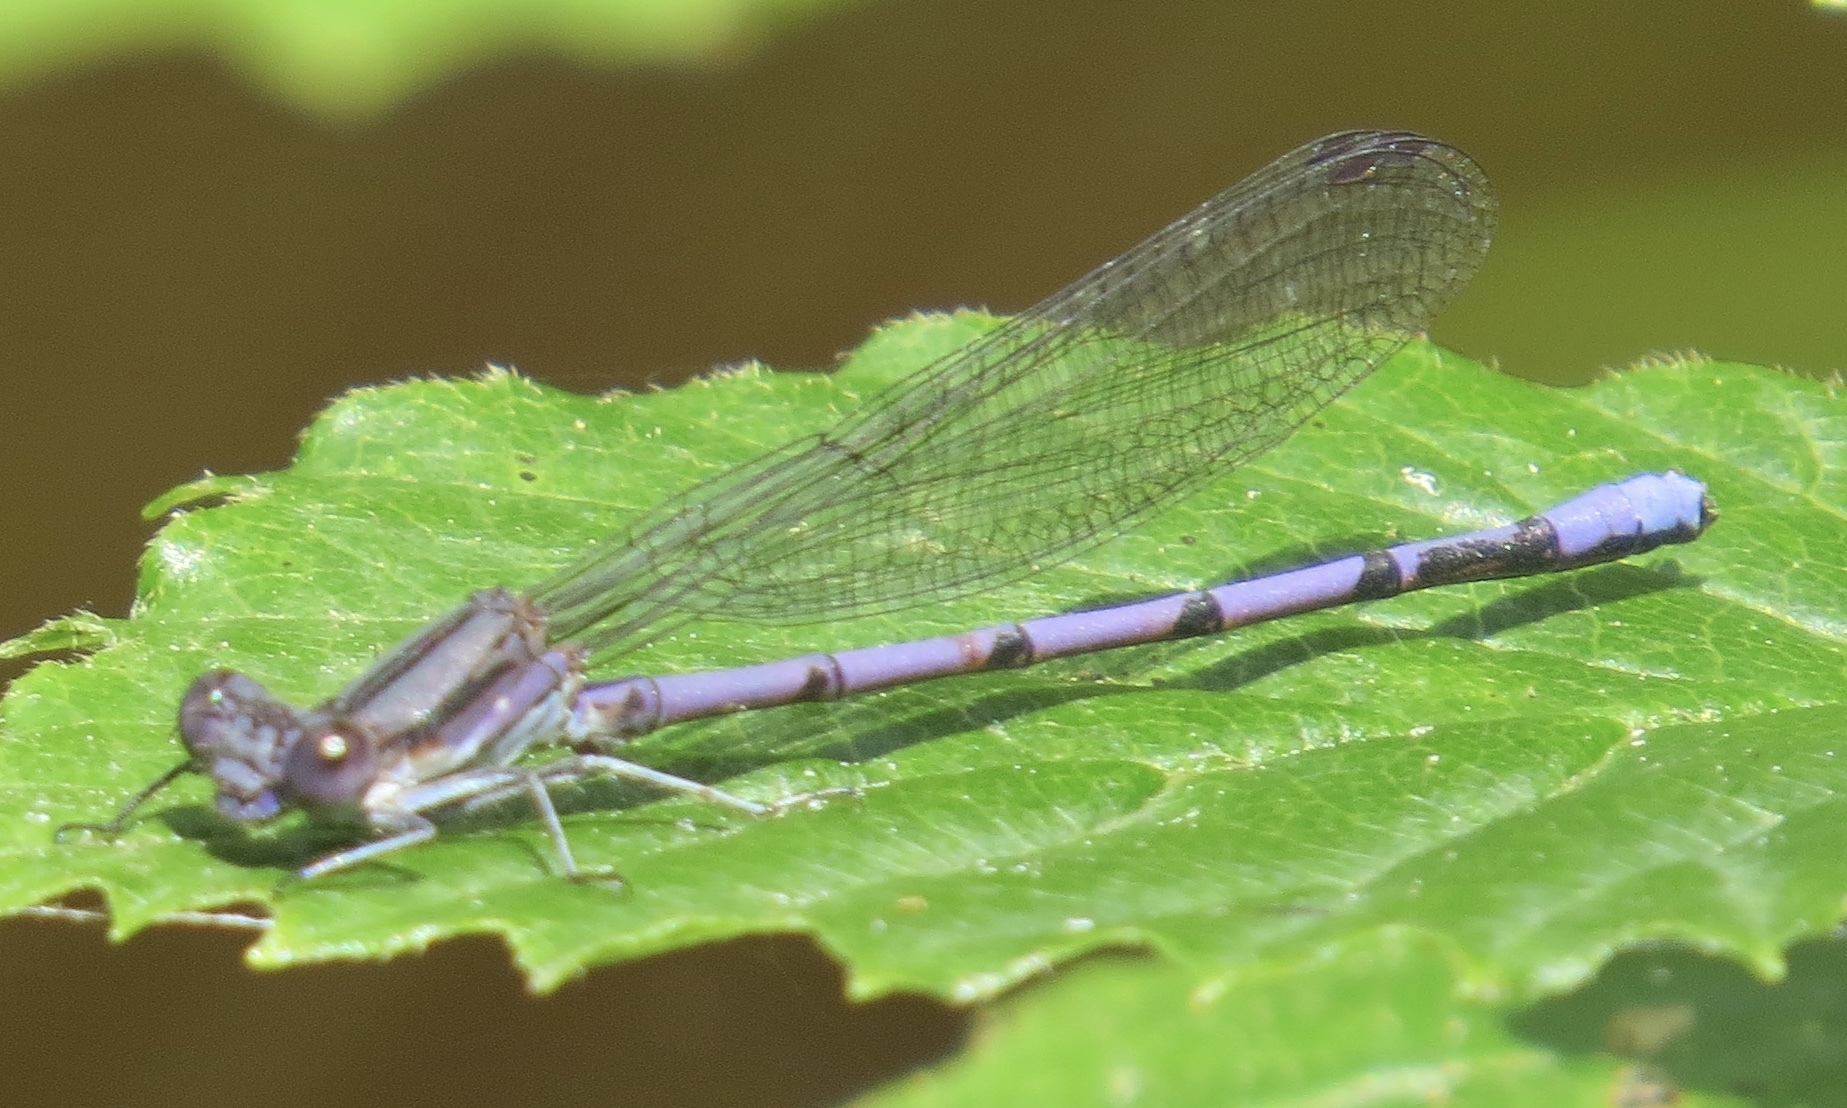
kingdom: Animalia
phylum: Arthropoda
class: Insecta
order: Odonata
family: Coenagrionidae
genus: Argia
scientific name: Argia fumipennis
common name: Variable dancer
